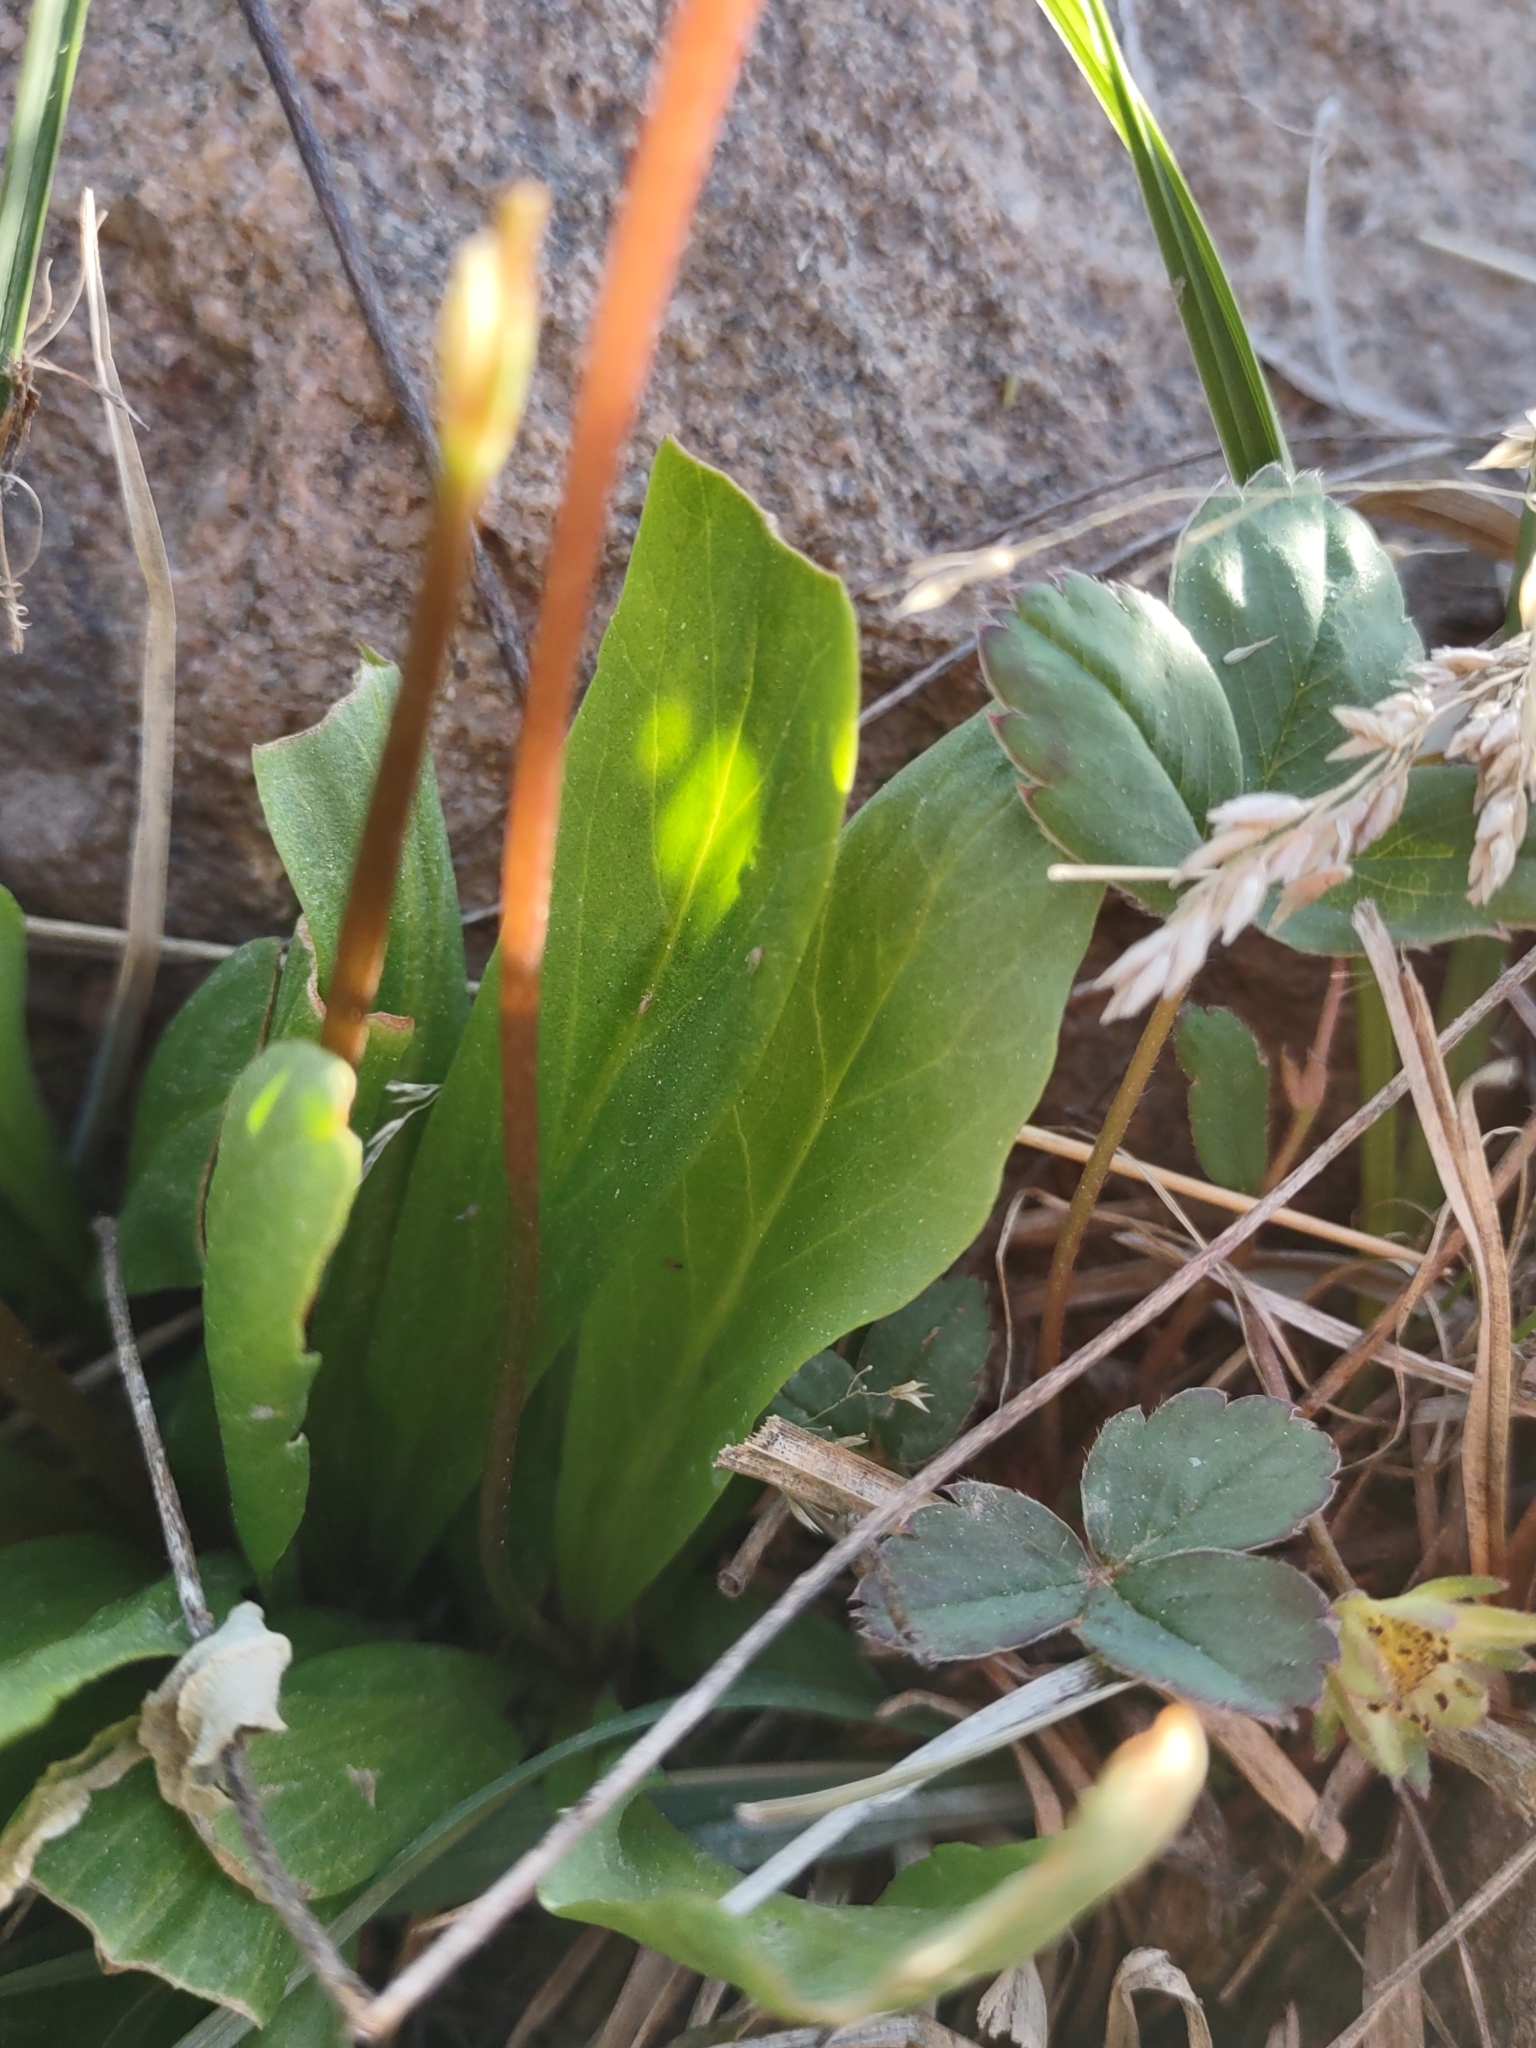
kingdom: Plantae
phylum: Tracheophyta
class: Magnoliopsida
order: Ericales
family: Primulaceae
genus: Dodecatheon
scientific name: Dodecatheon pulchellum
